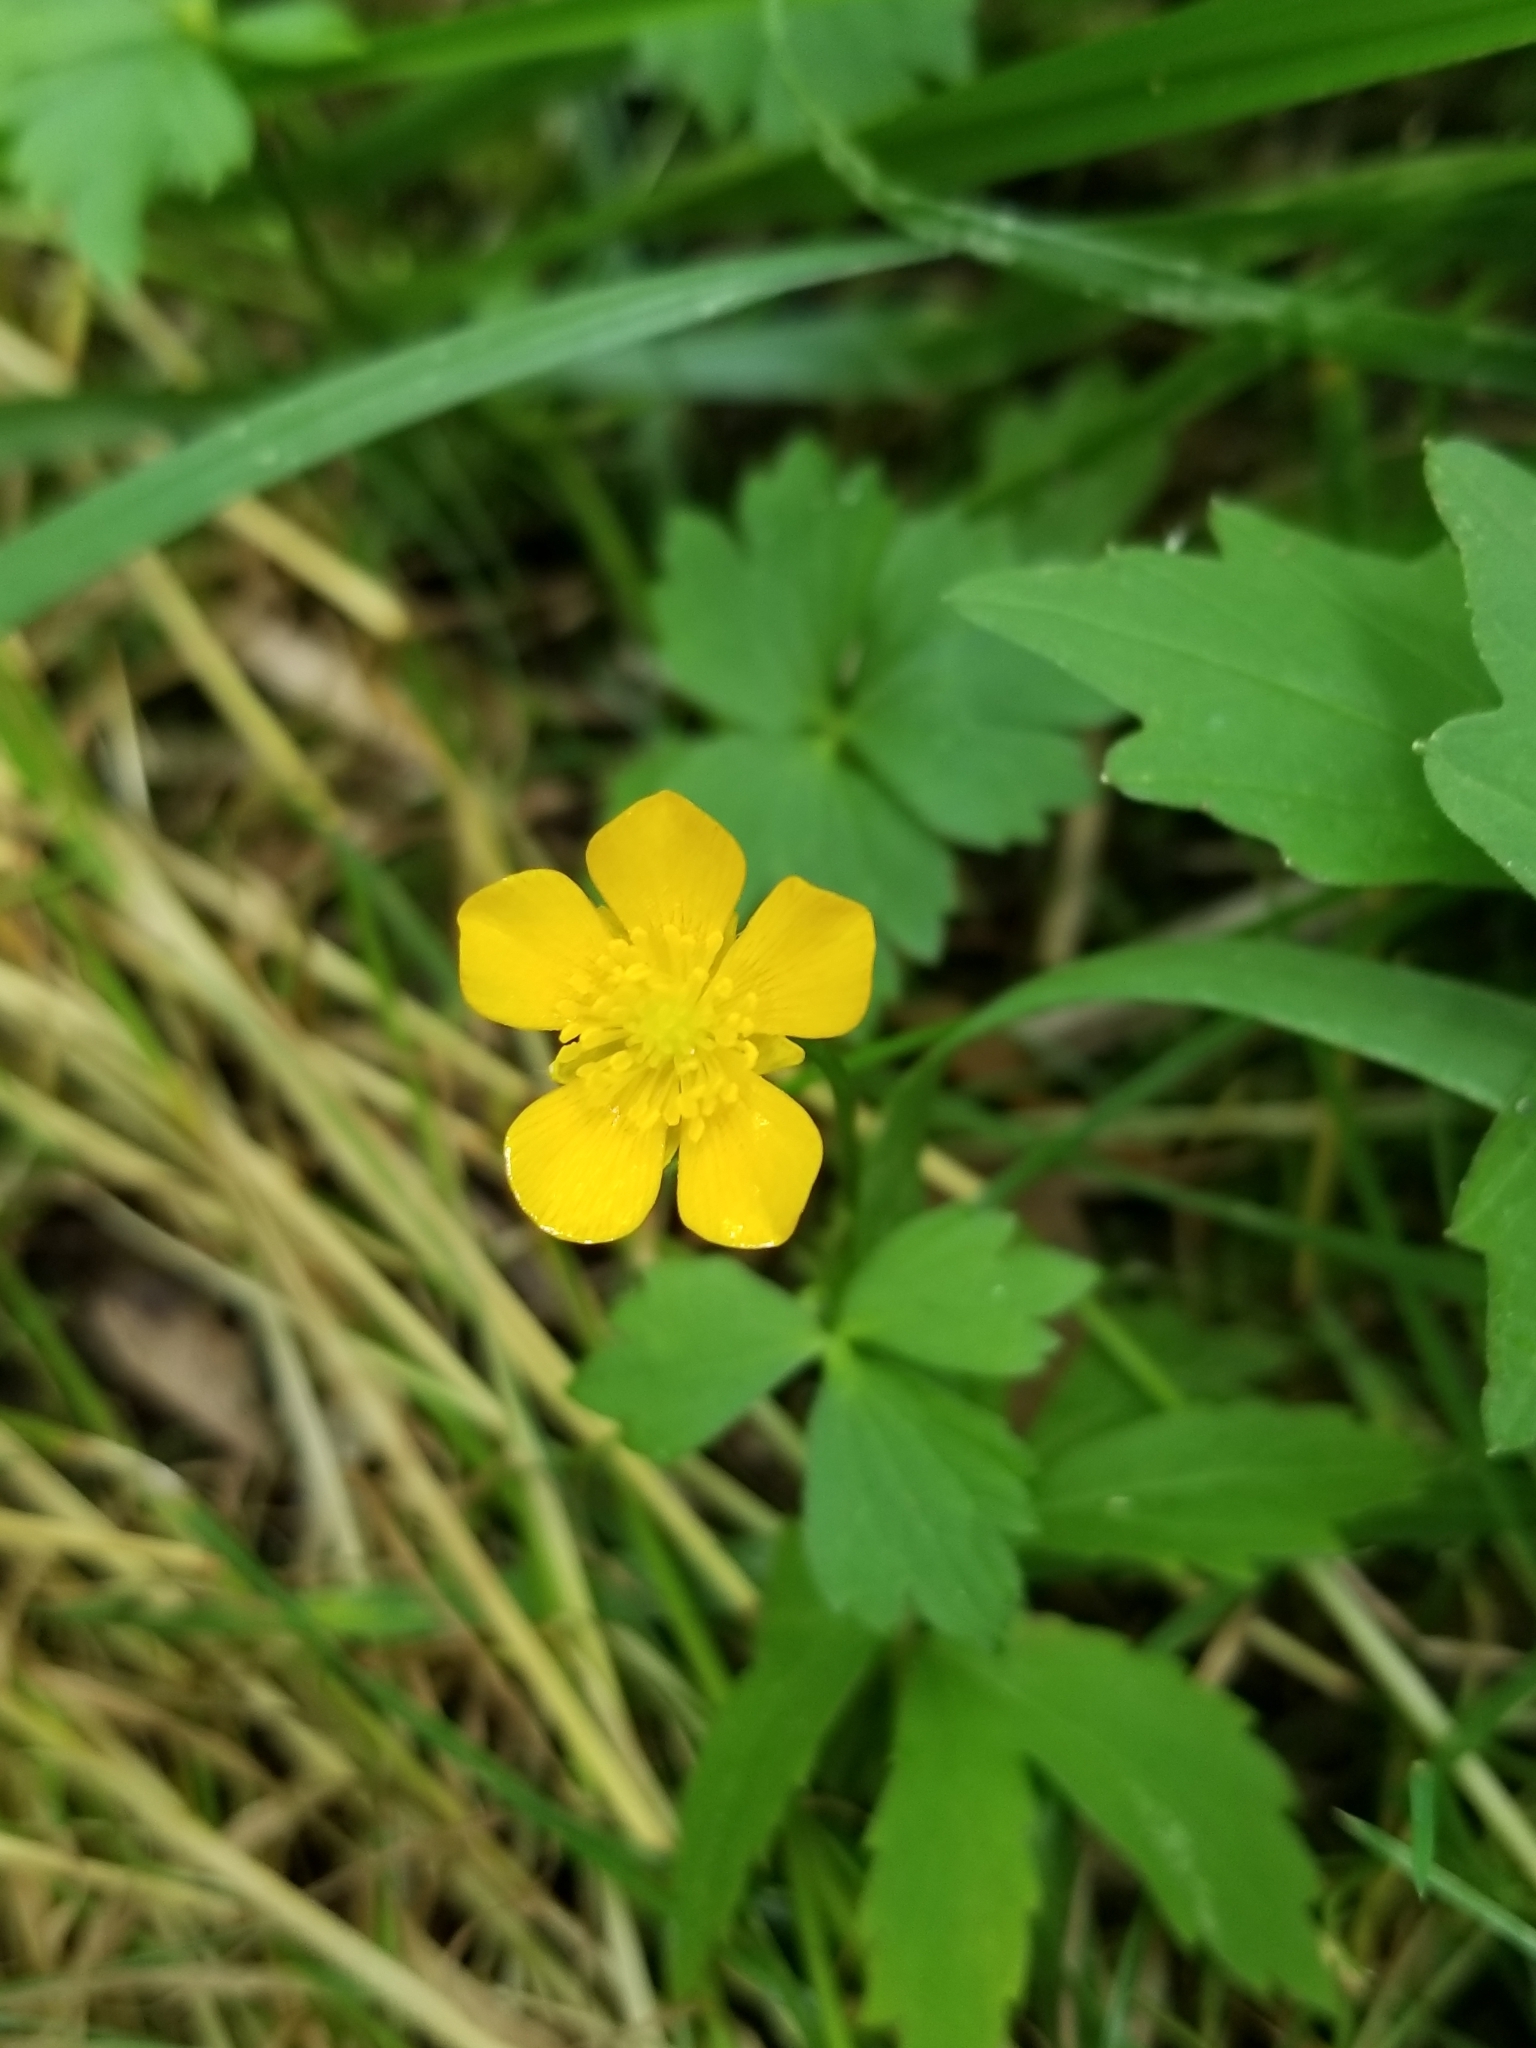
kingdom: Plantae
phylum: Tracheophyta
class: Magnoliopsida
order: Ranunculales
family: Ranunculaceae
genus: Ranunculus
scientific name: Ranunculus repens
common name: Creeping buttercup
